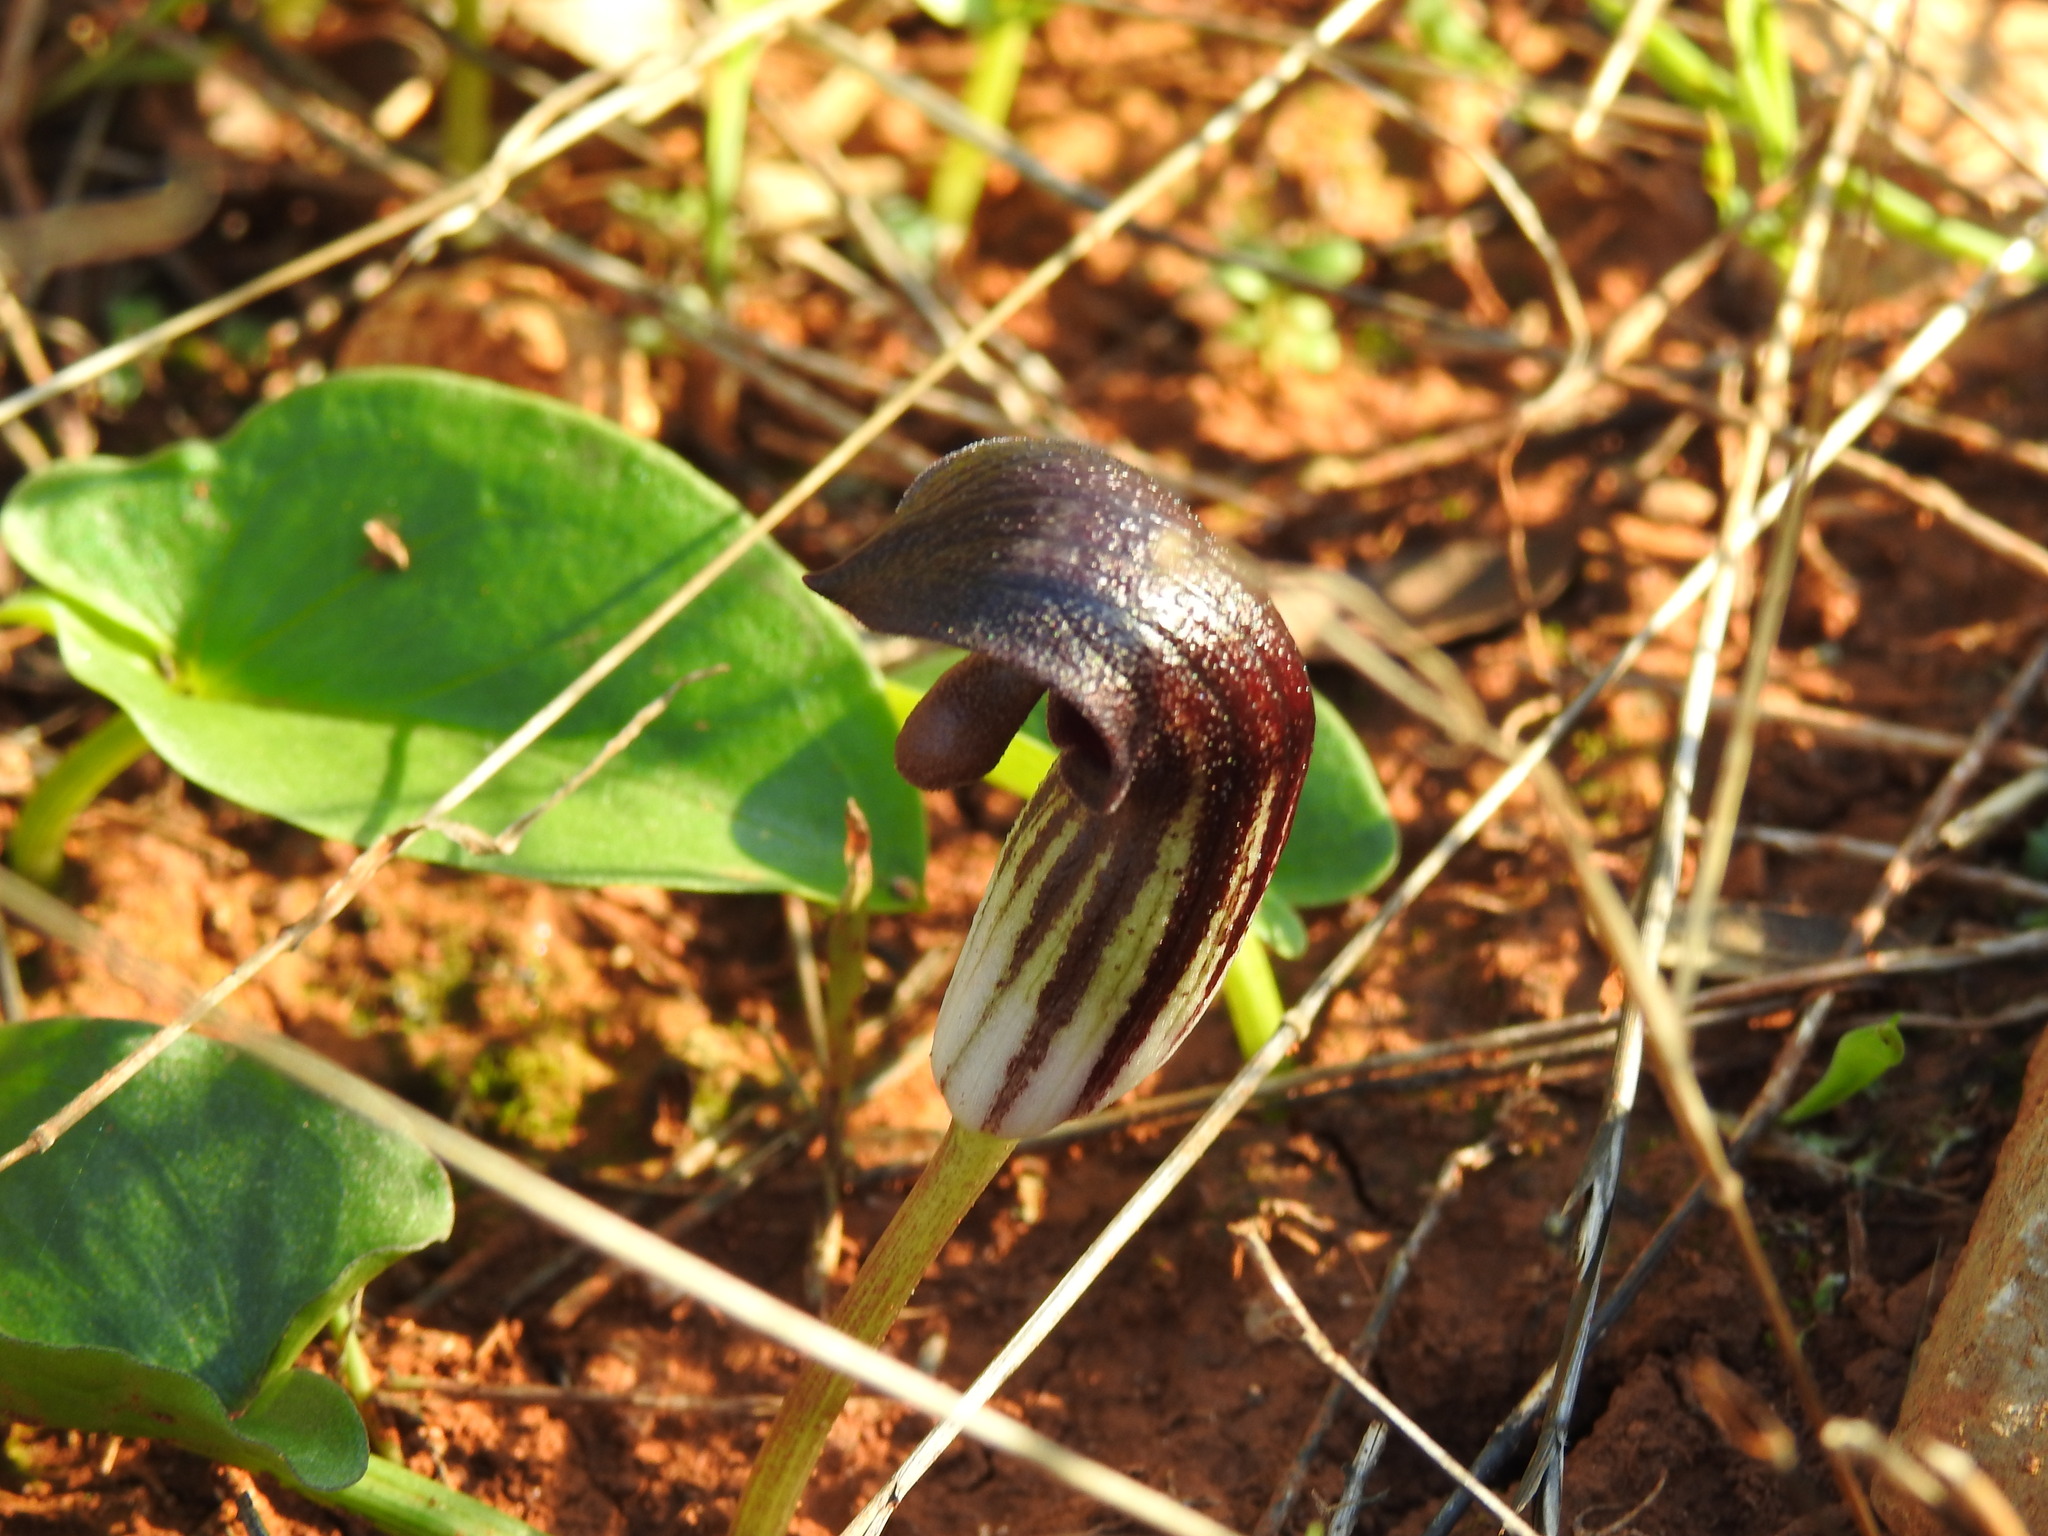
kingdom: Plantae
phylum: Tracheophyta
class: Liliopsida
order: Alismatales
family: Araceae
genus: Arisarum
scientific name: Arisarum simorrhinum
